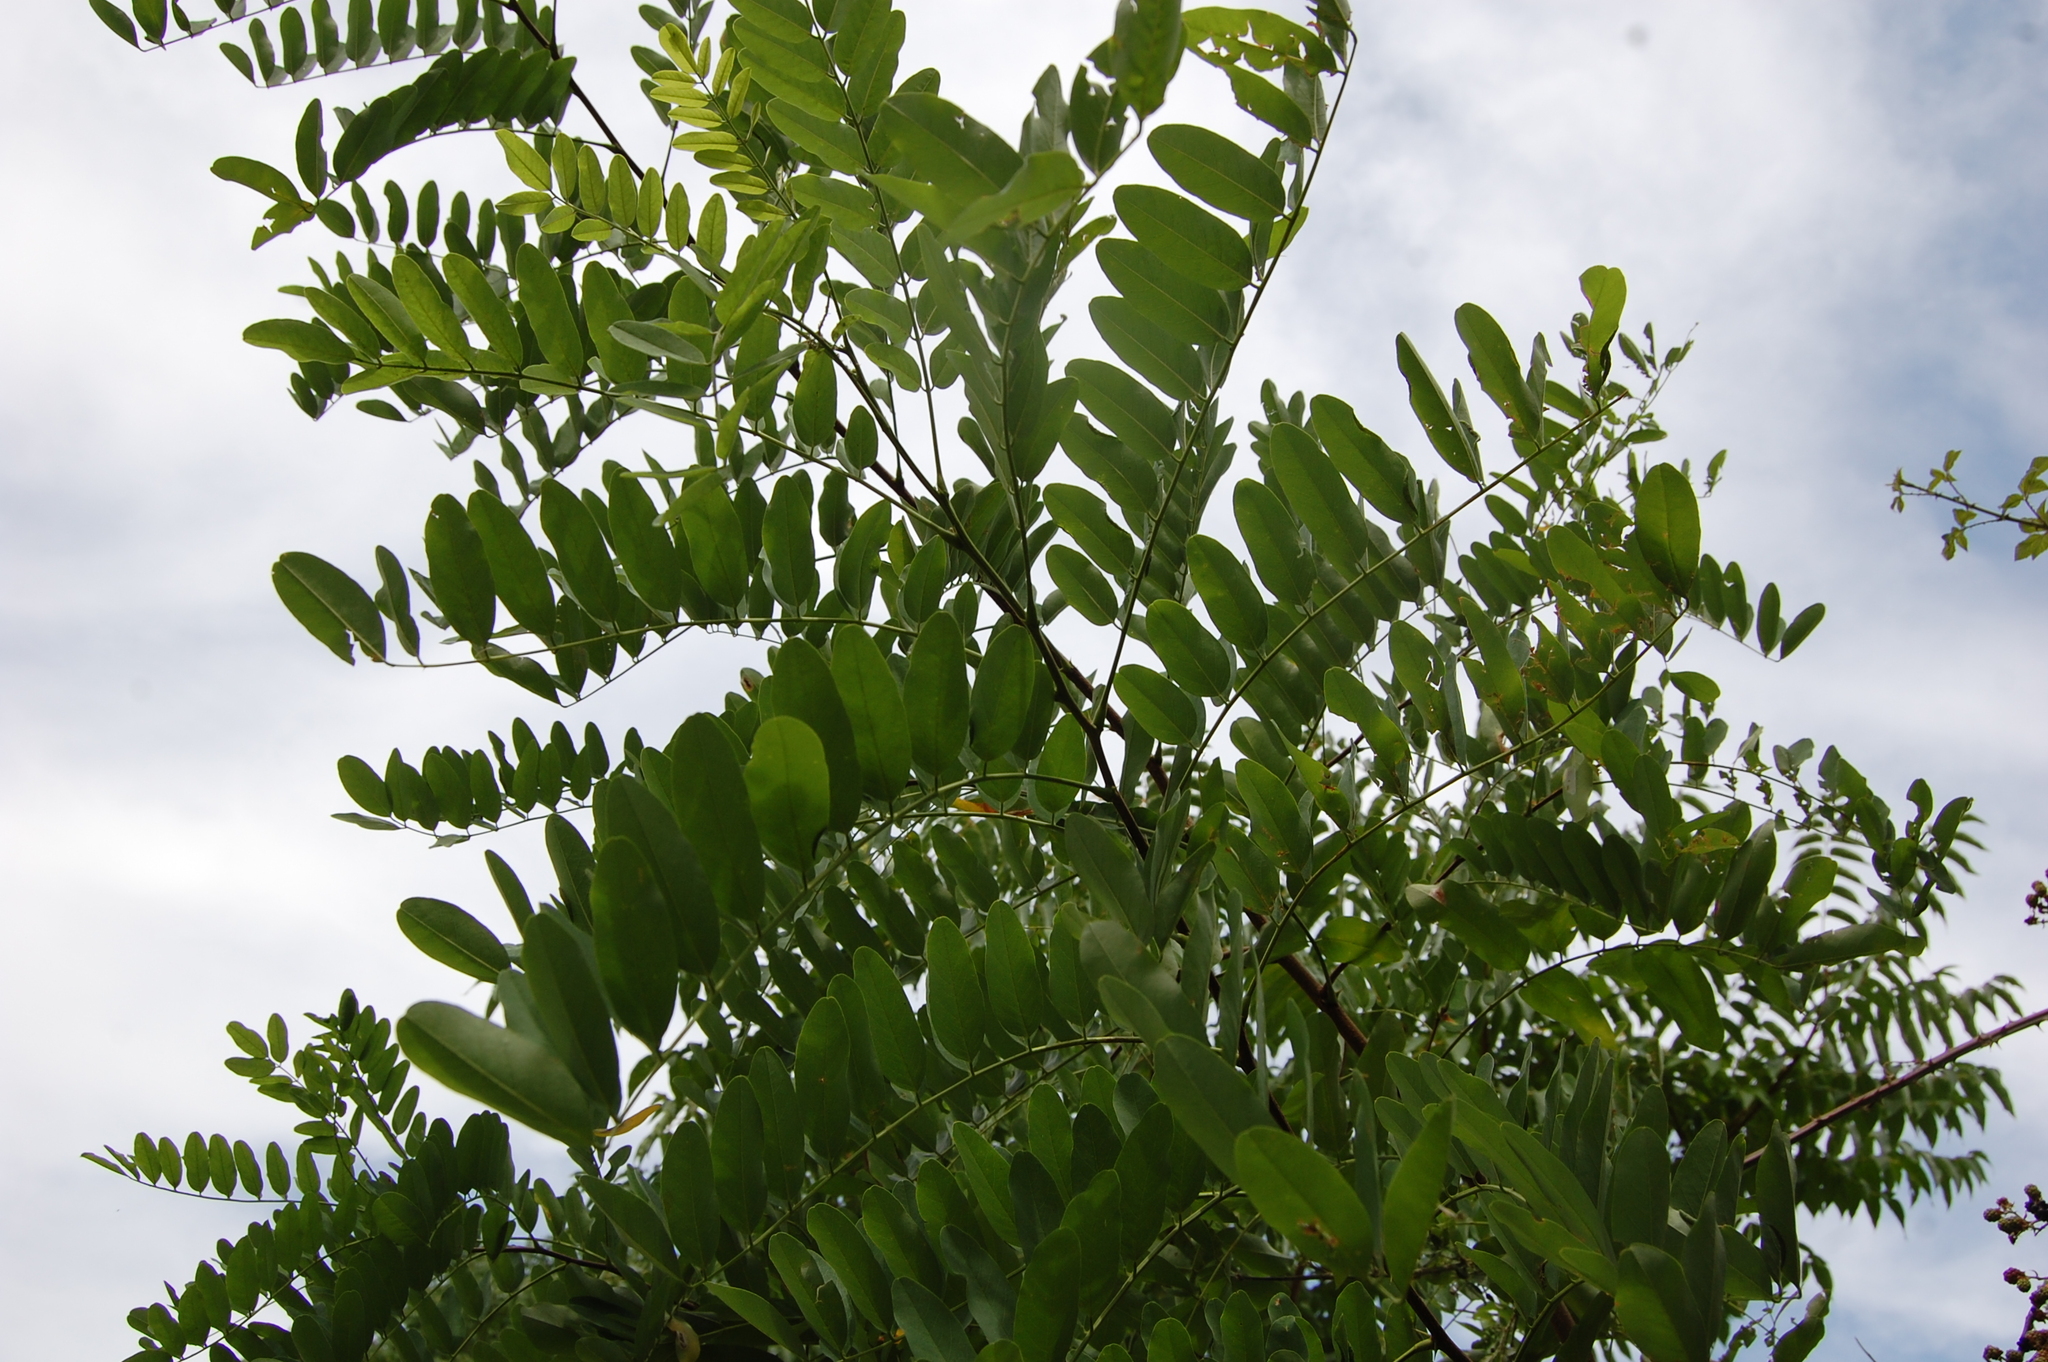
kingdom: Plantae
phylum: Tracheophyta
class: Magnoliopsida
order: Fabales
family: Fabaceae
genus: Robinia
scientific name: Robinia pseudoacacia
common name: Black locust
